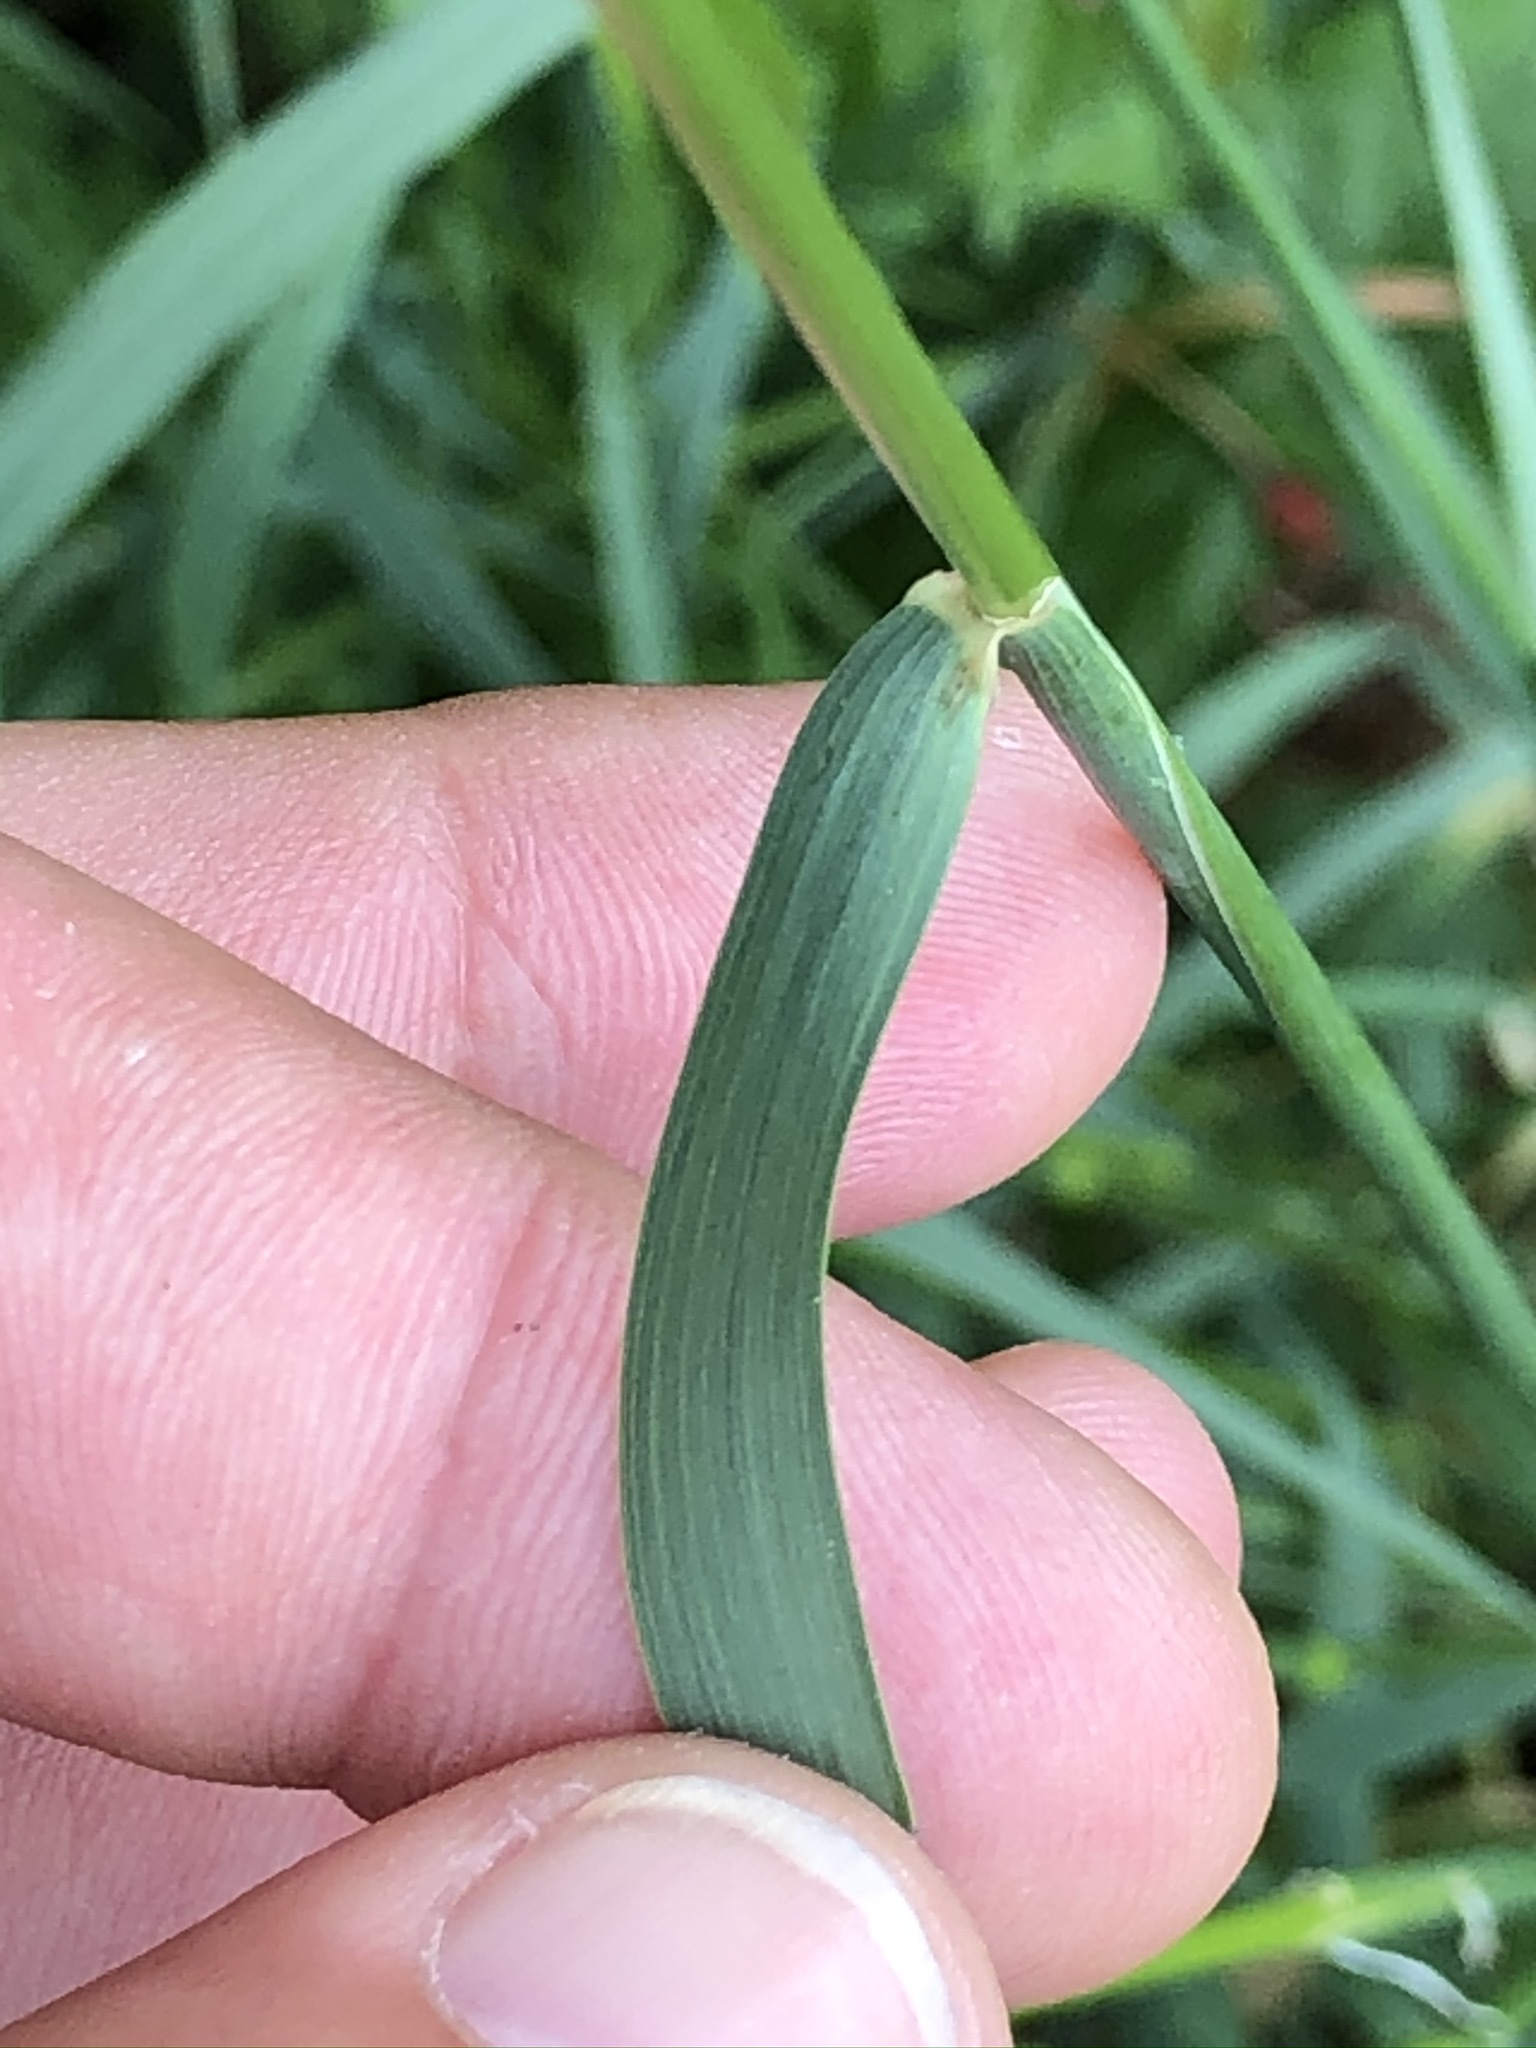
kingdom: Plantae
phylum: Tracheophyta
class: Liliopsida
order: Poales
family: Poaceae
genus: Arrhenatherum
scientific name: Arrhenatherum elatius
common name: Tall oatgrass
